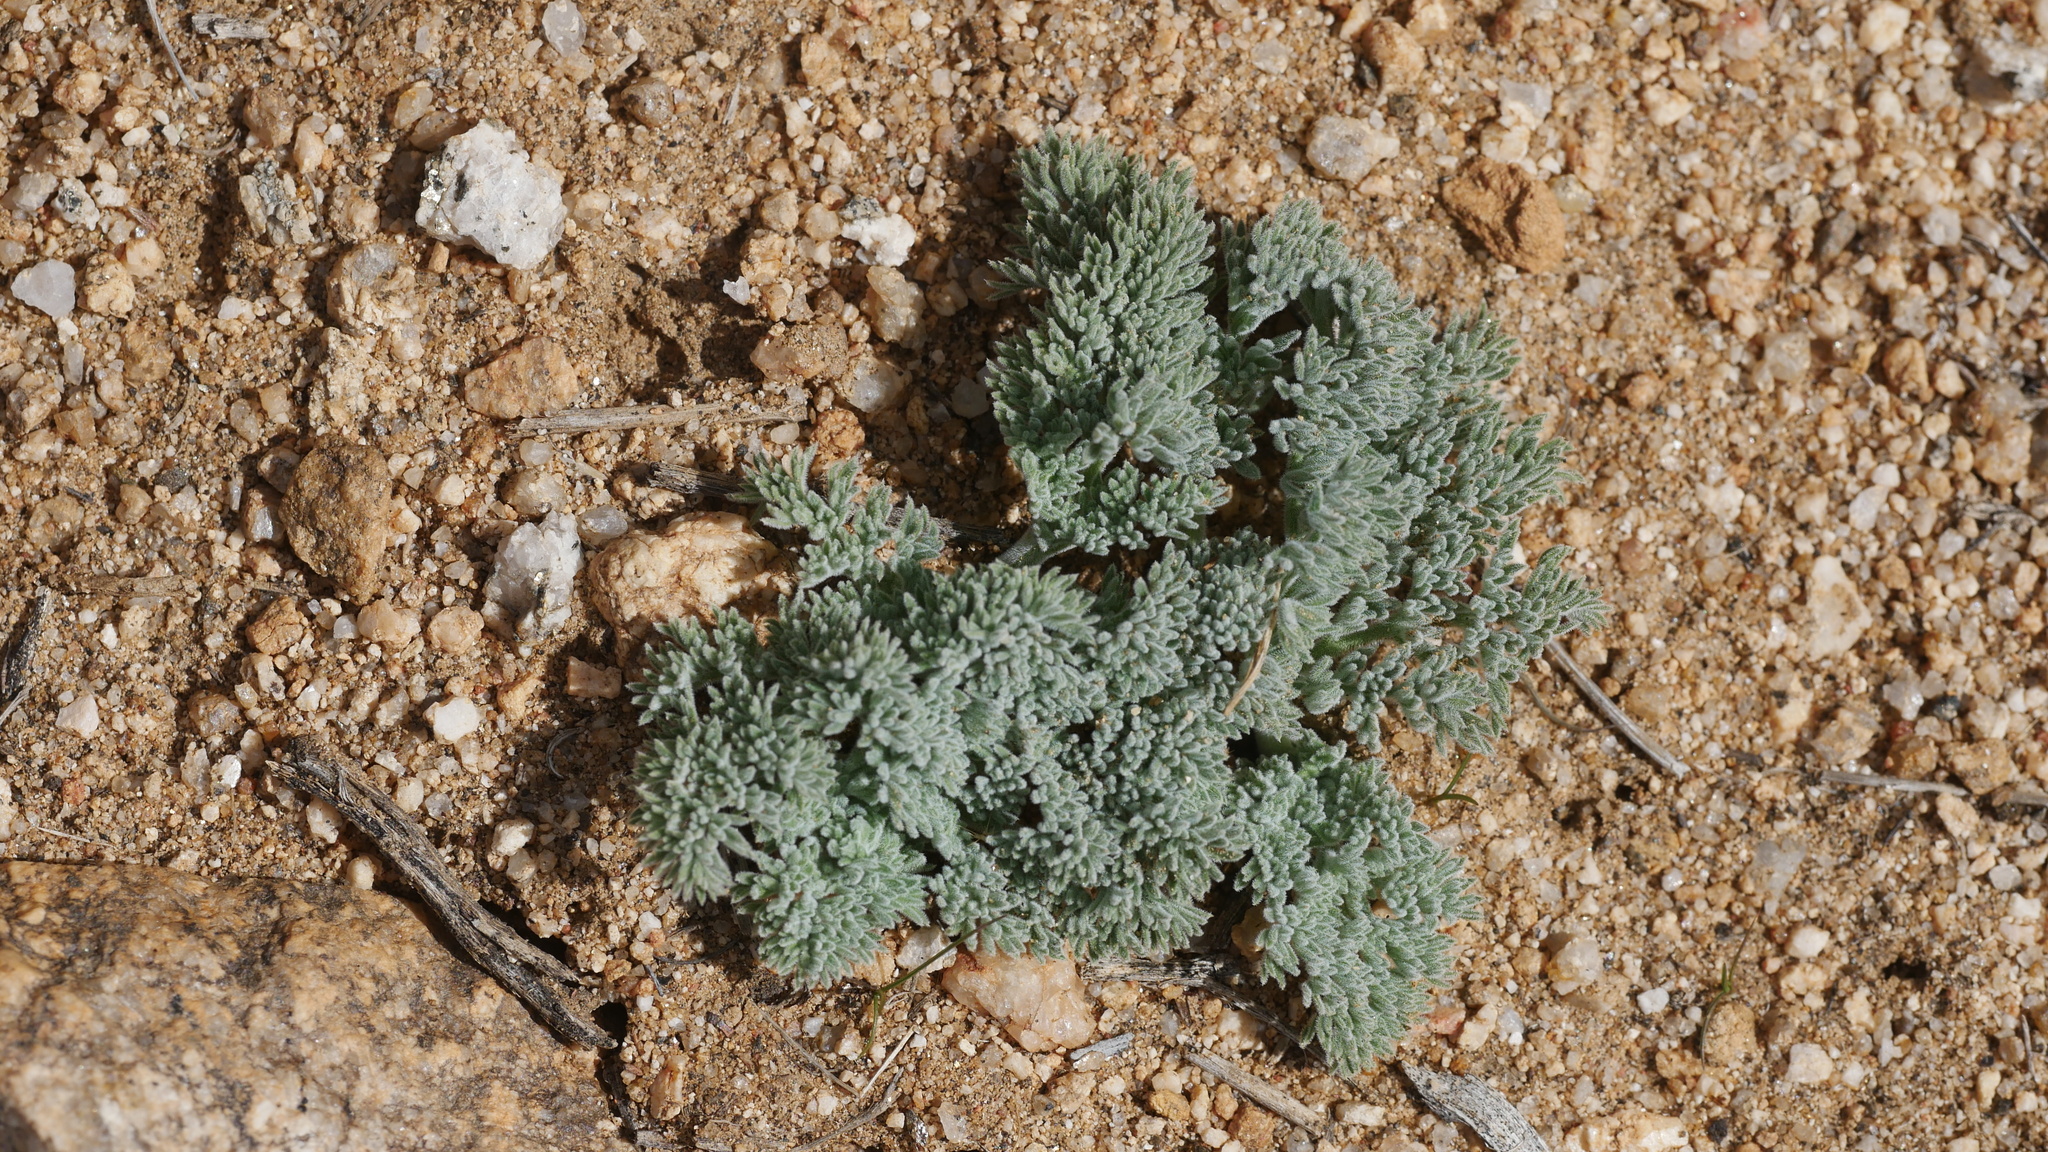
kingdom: Plantae
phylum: Tracheophyta
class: Magnoliopsida
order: Apiales
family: Apiaceae
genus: Lomatium
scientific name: Lomatium mohavense
